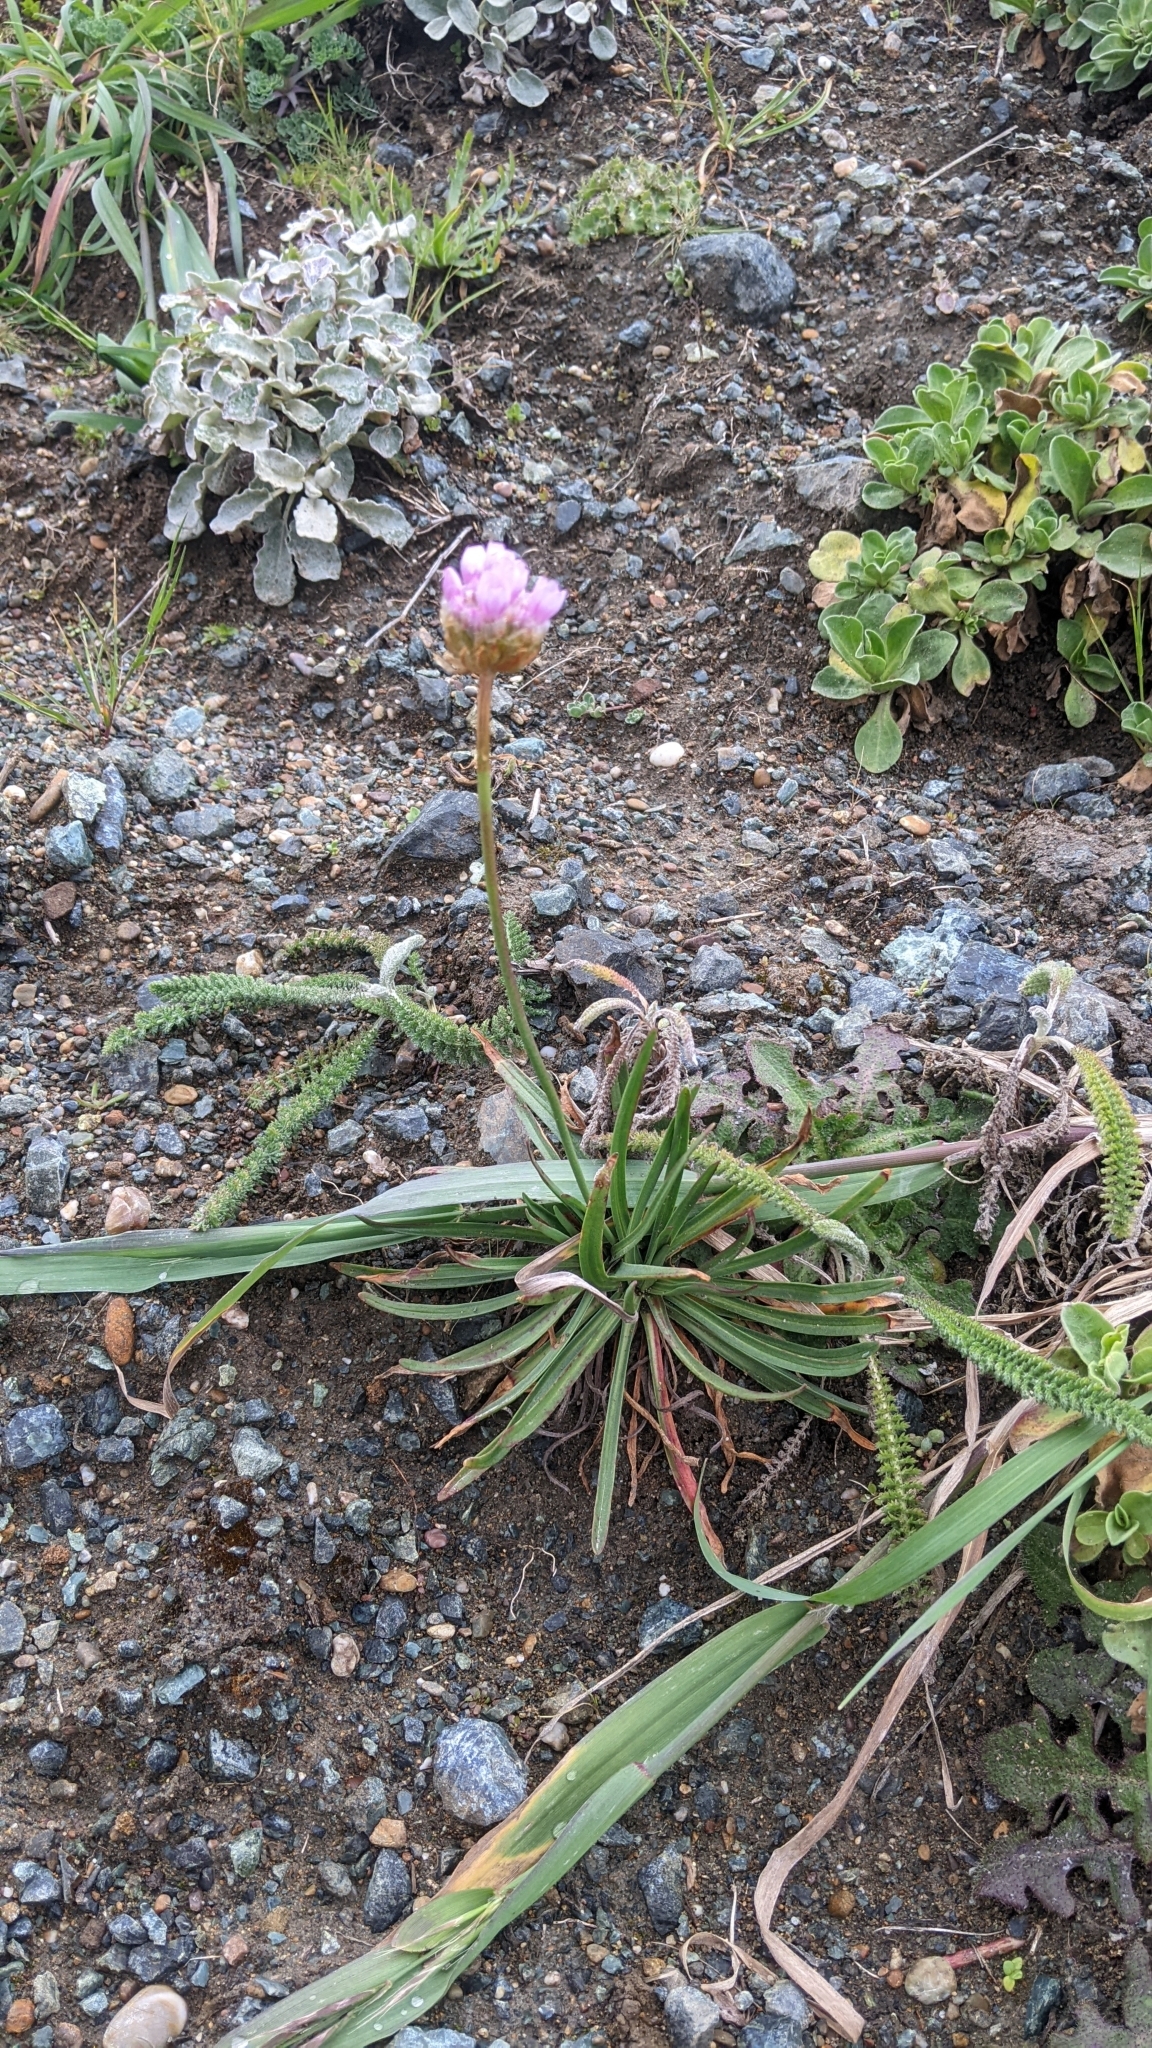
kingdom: Plantae
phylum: Tracheophyta
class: Magnoliopsida
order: Caryophyllales
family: Plumbaginaceae
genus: Armeria
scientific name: Armeria maritima
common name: Thrift
